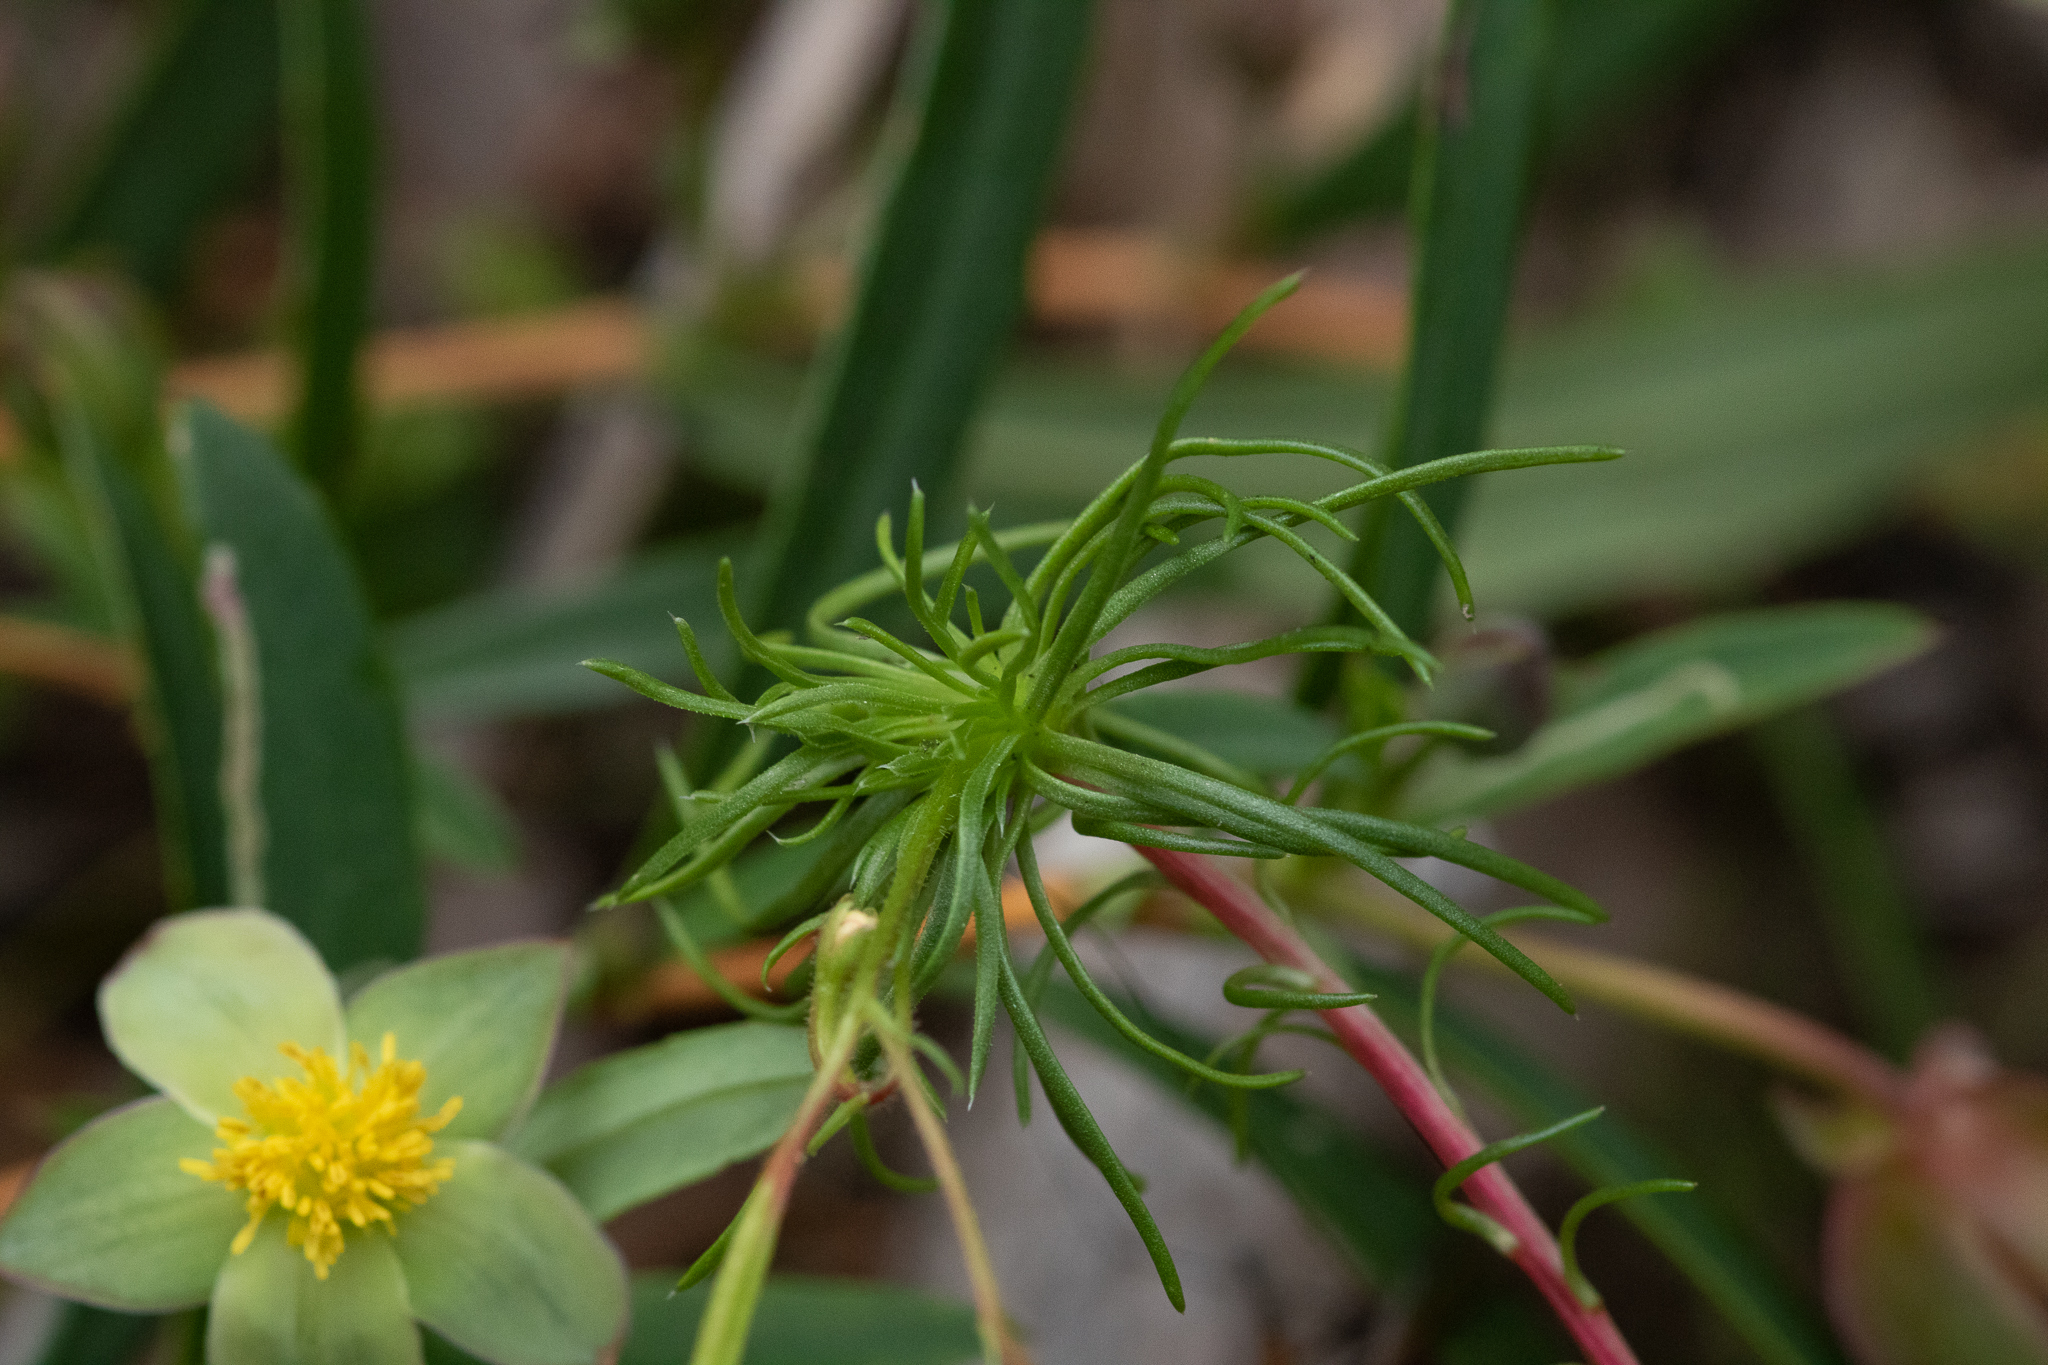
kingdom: Plantae
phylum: Tracheophyta
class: Magnoliopsida
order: Asterales
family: Stylidiaceae
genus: Stylidium
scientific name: Stylidium recurvum
